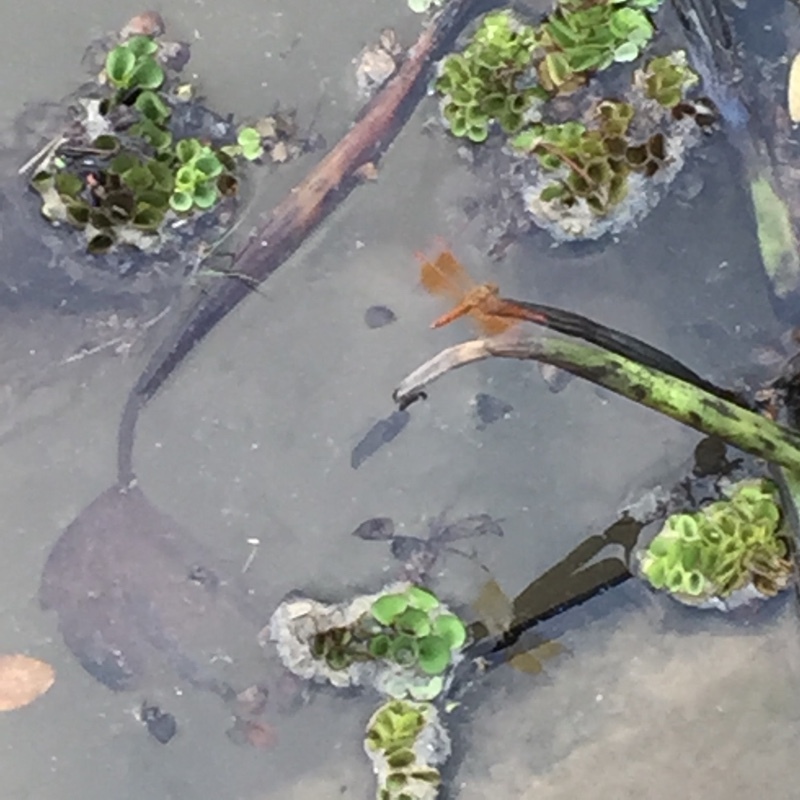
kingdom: Animalia
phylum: Arthropoda
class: Insecta
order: Odonata
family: Libellulidae
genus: Brachythemis
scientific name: Brachythemis contaminata
